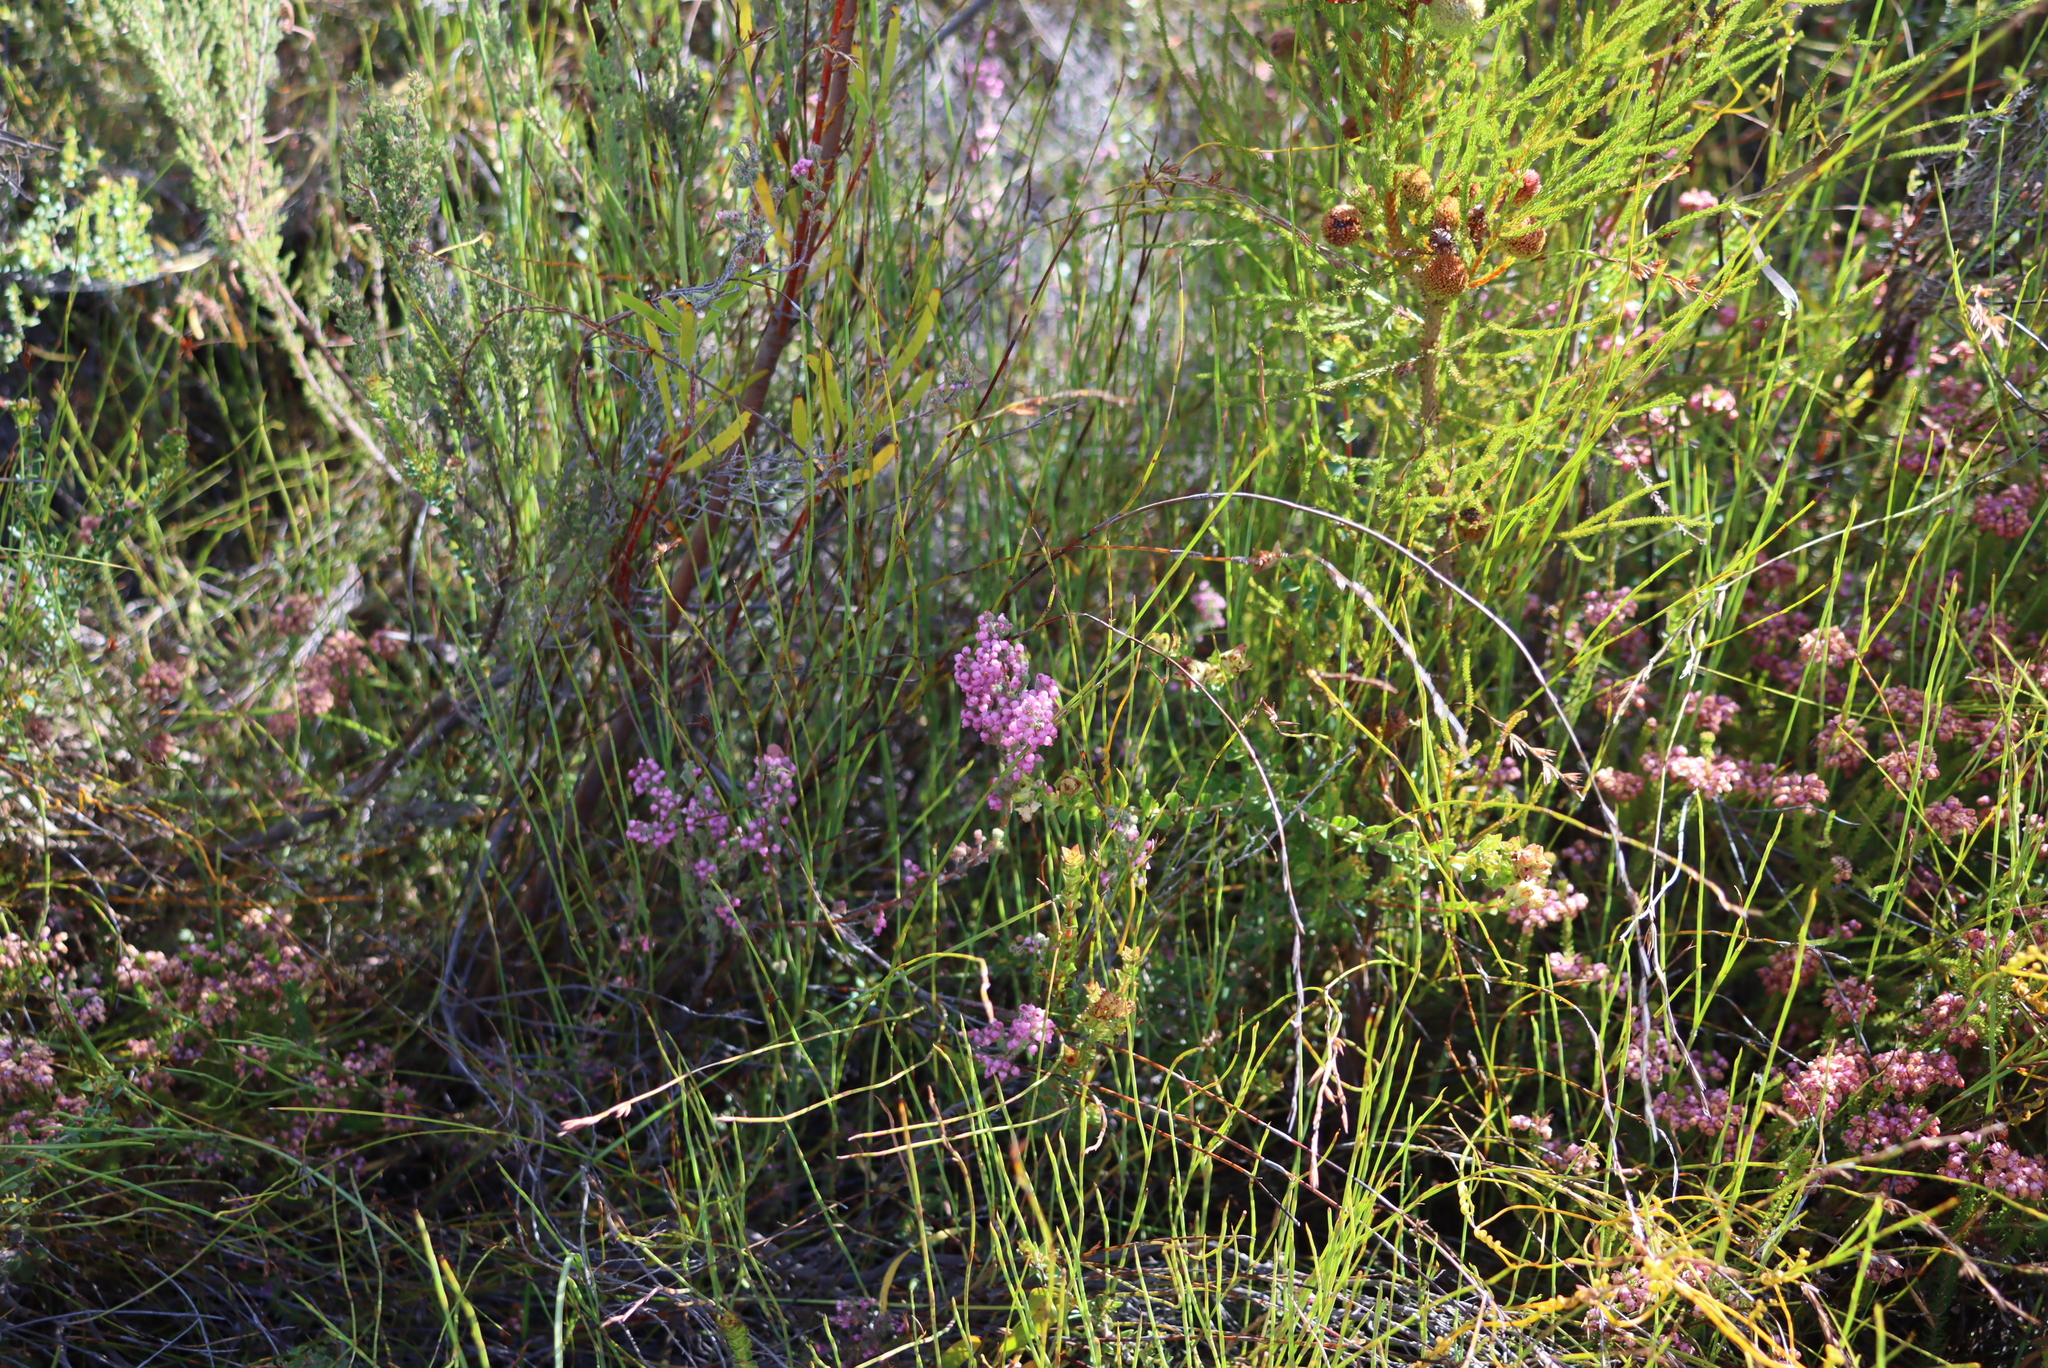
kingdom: Plantae
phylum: Tracheophyta
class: Magnoliopsida
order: Ericales
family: Ericaceae
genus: Erica
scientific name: Erica bergiana
